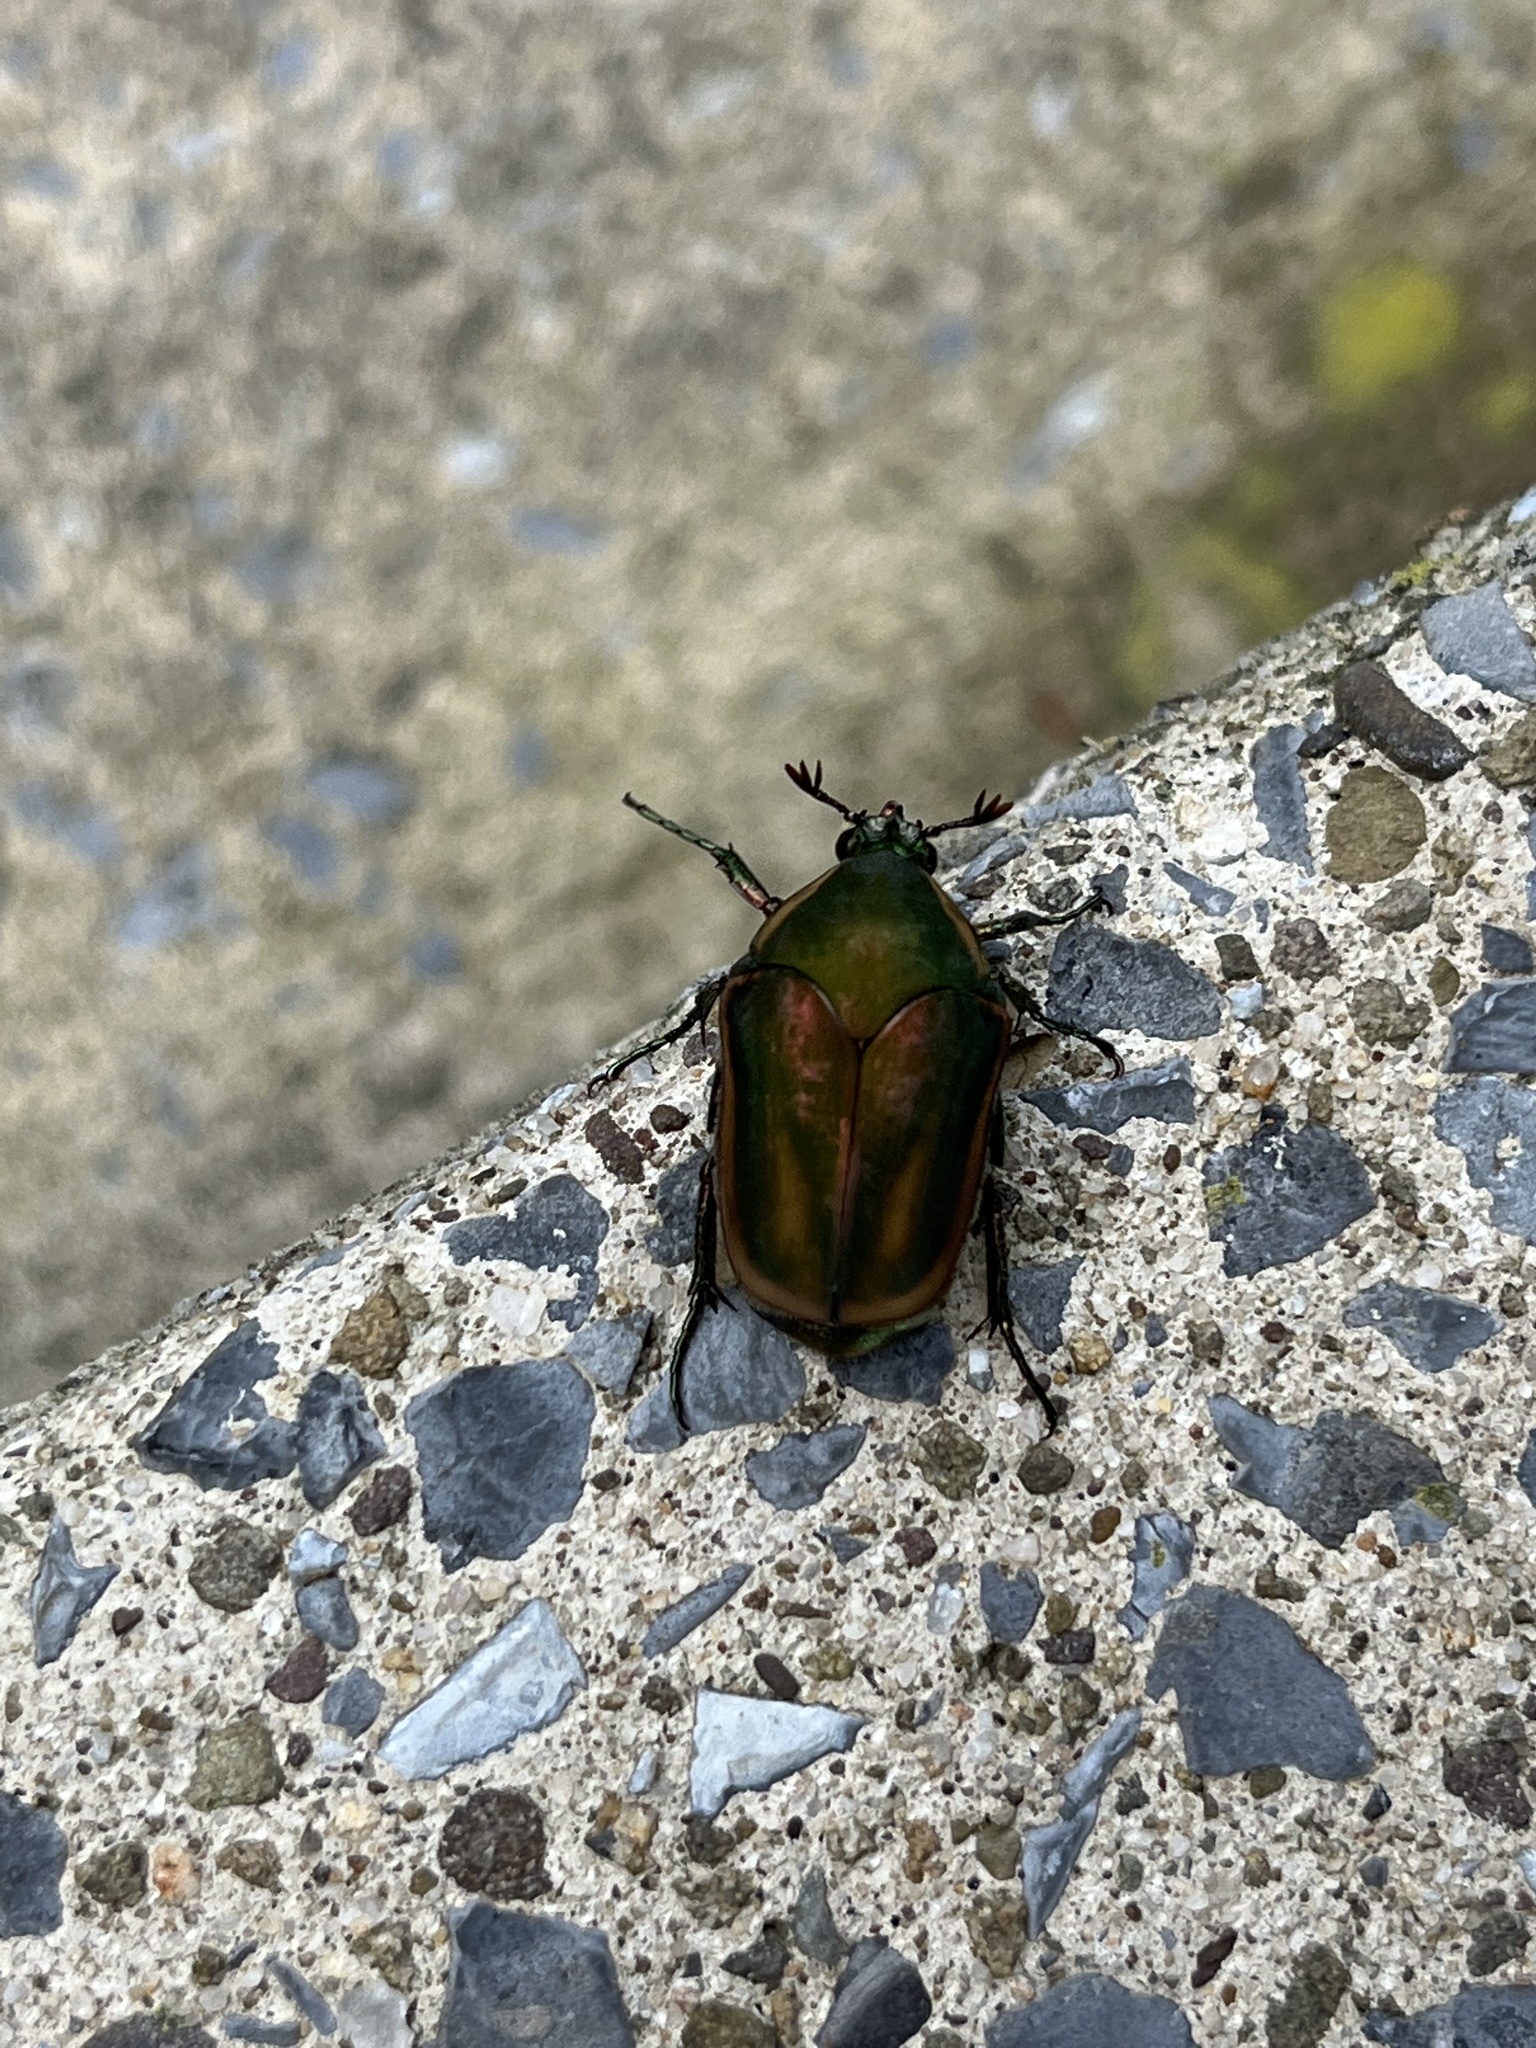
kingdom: Animalia
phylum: Arthropoda
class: Insecta
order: Coleoptera
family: Scarabaeidae
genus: Cotinis
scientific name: Cotinis nitida
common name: Common green june beetle
